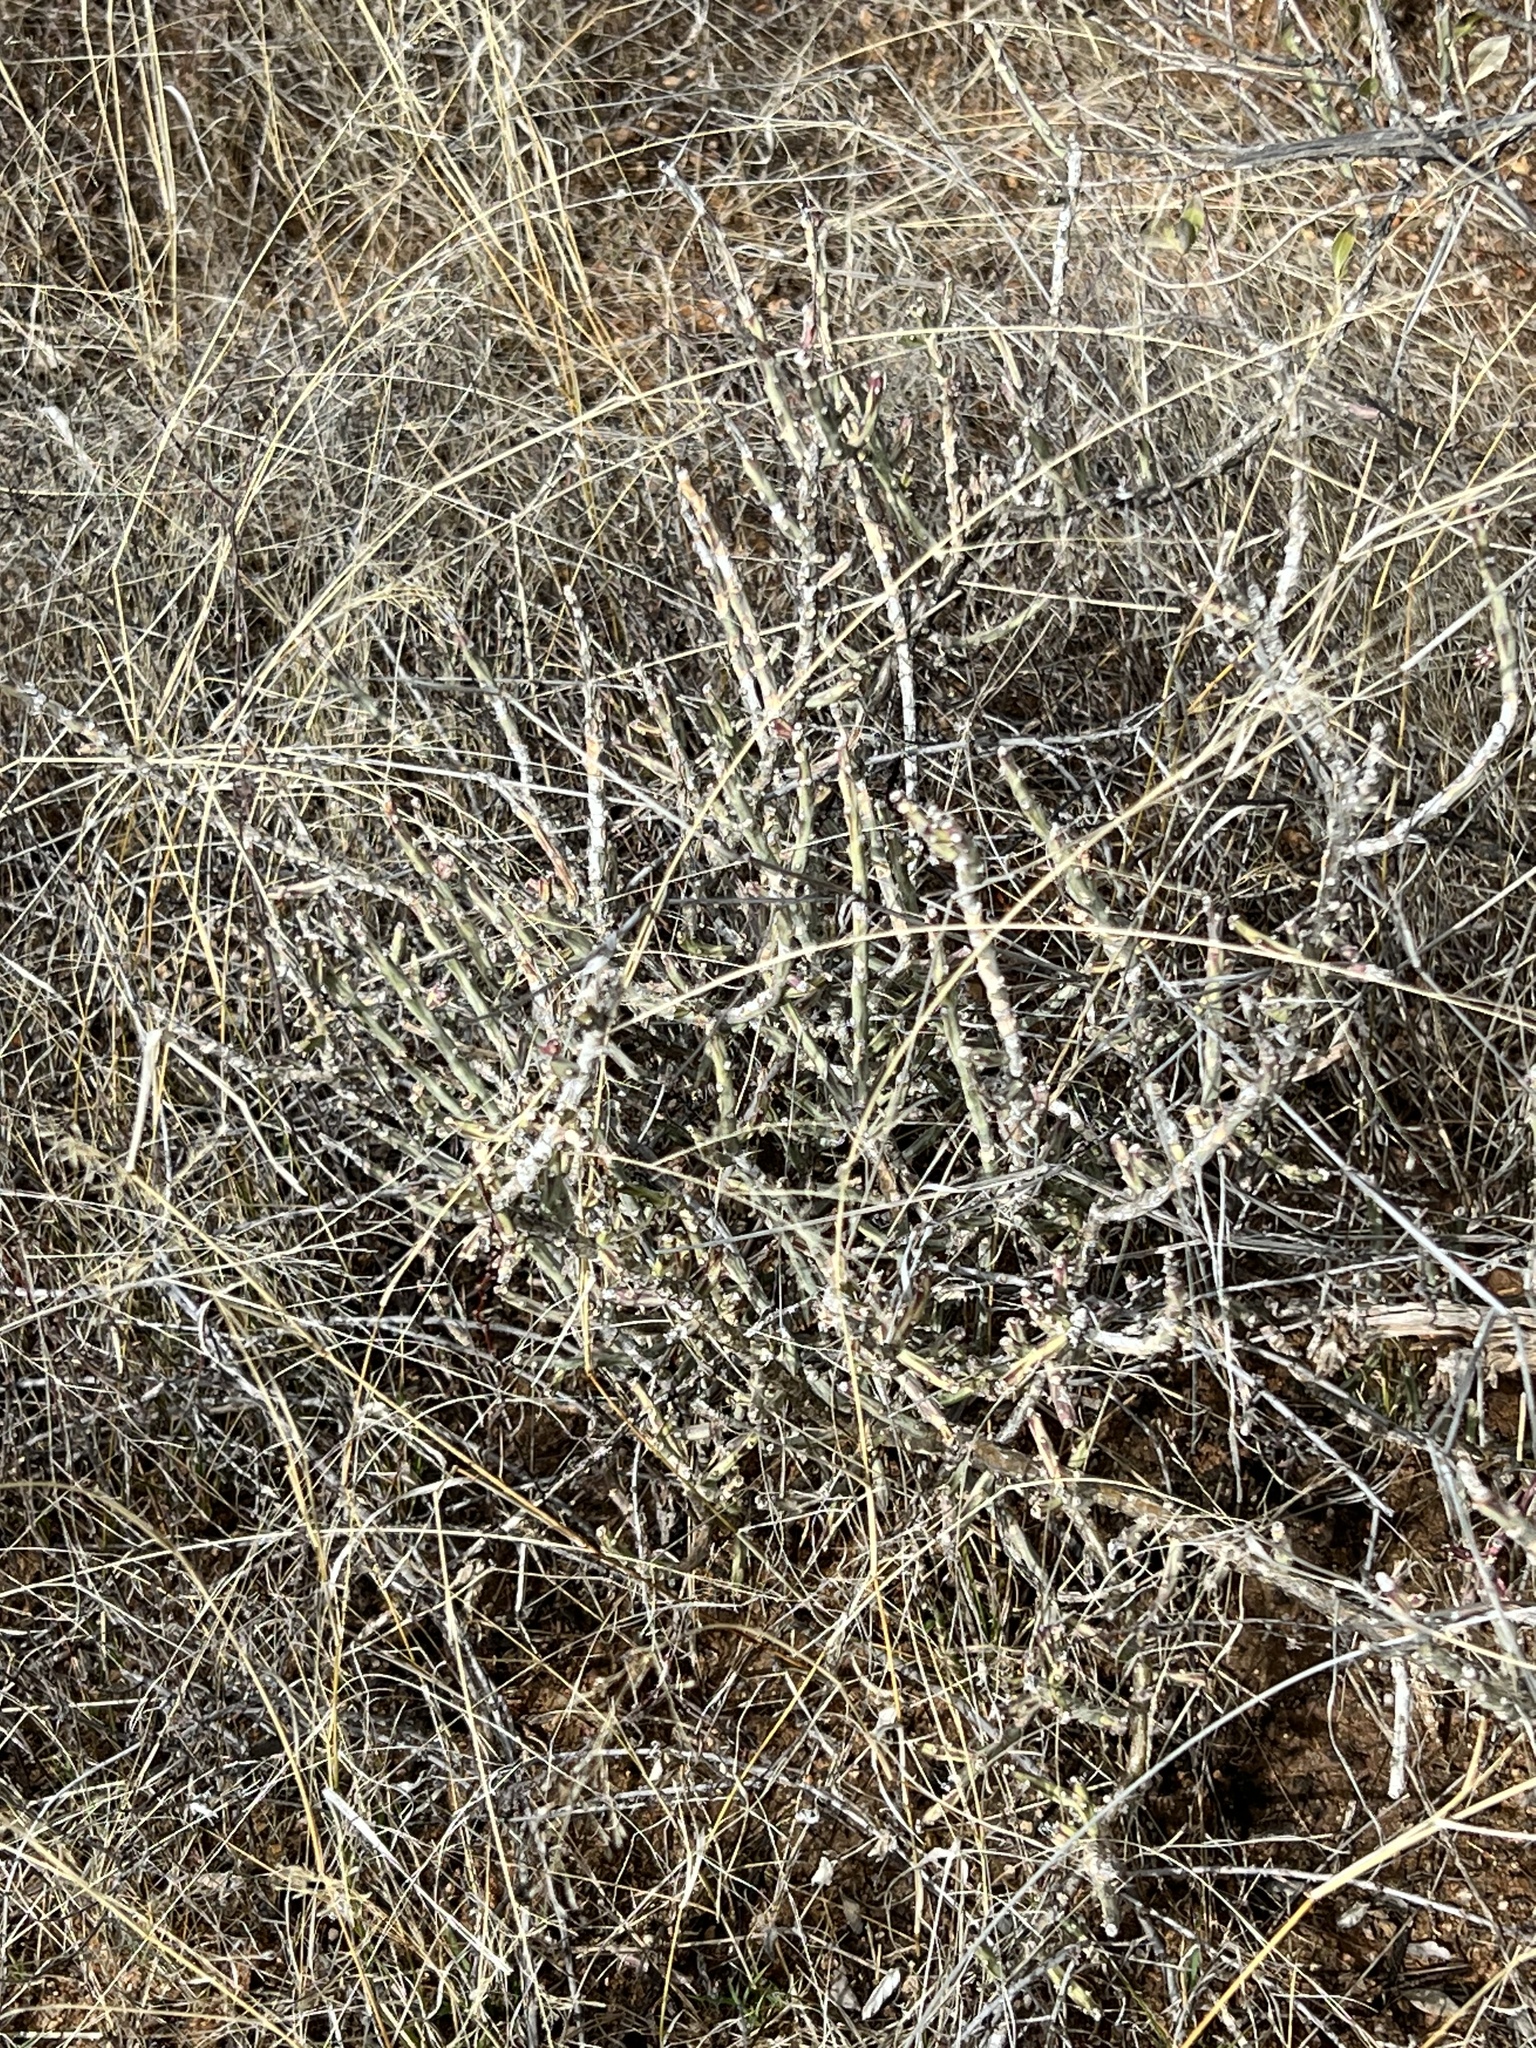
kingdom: Plantae
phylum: Tracheophyta
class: Magnoliopsida
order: Caryophyllales
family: Cactaceae
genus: Cylindropuntia
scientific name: Cylindropuntia leptocaulis
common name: Christmas cactus
